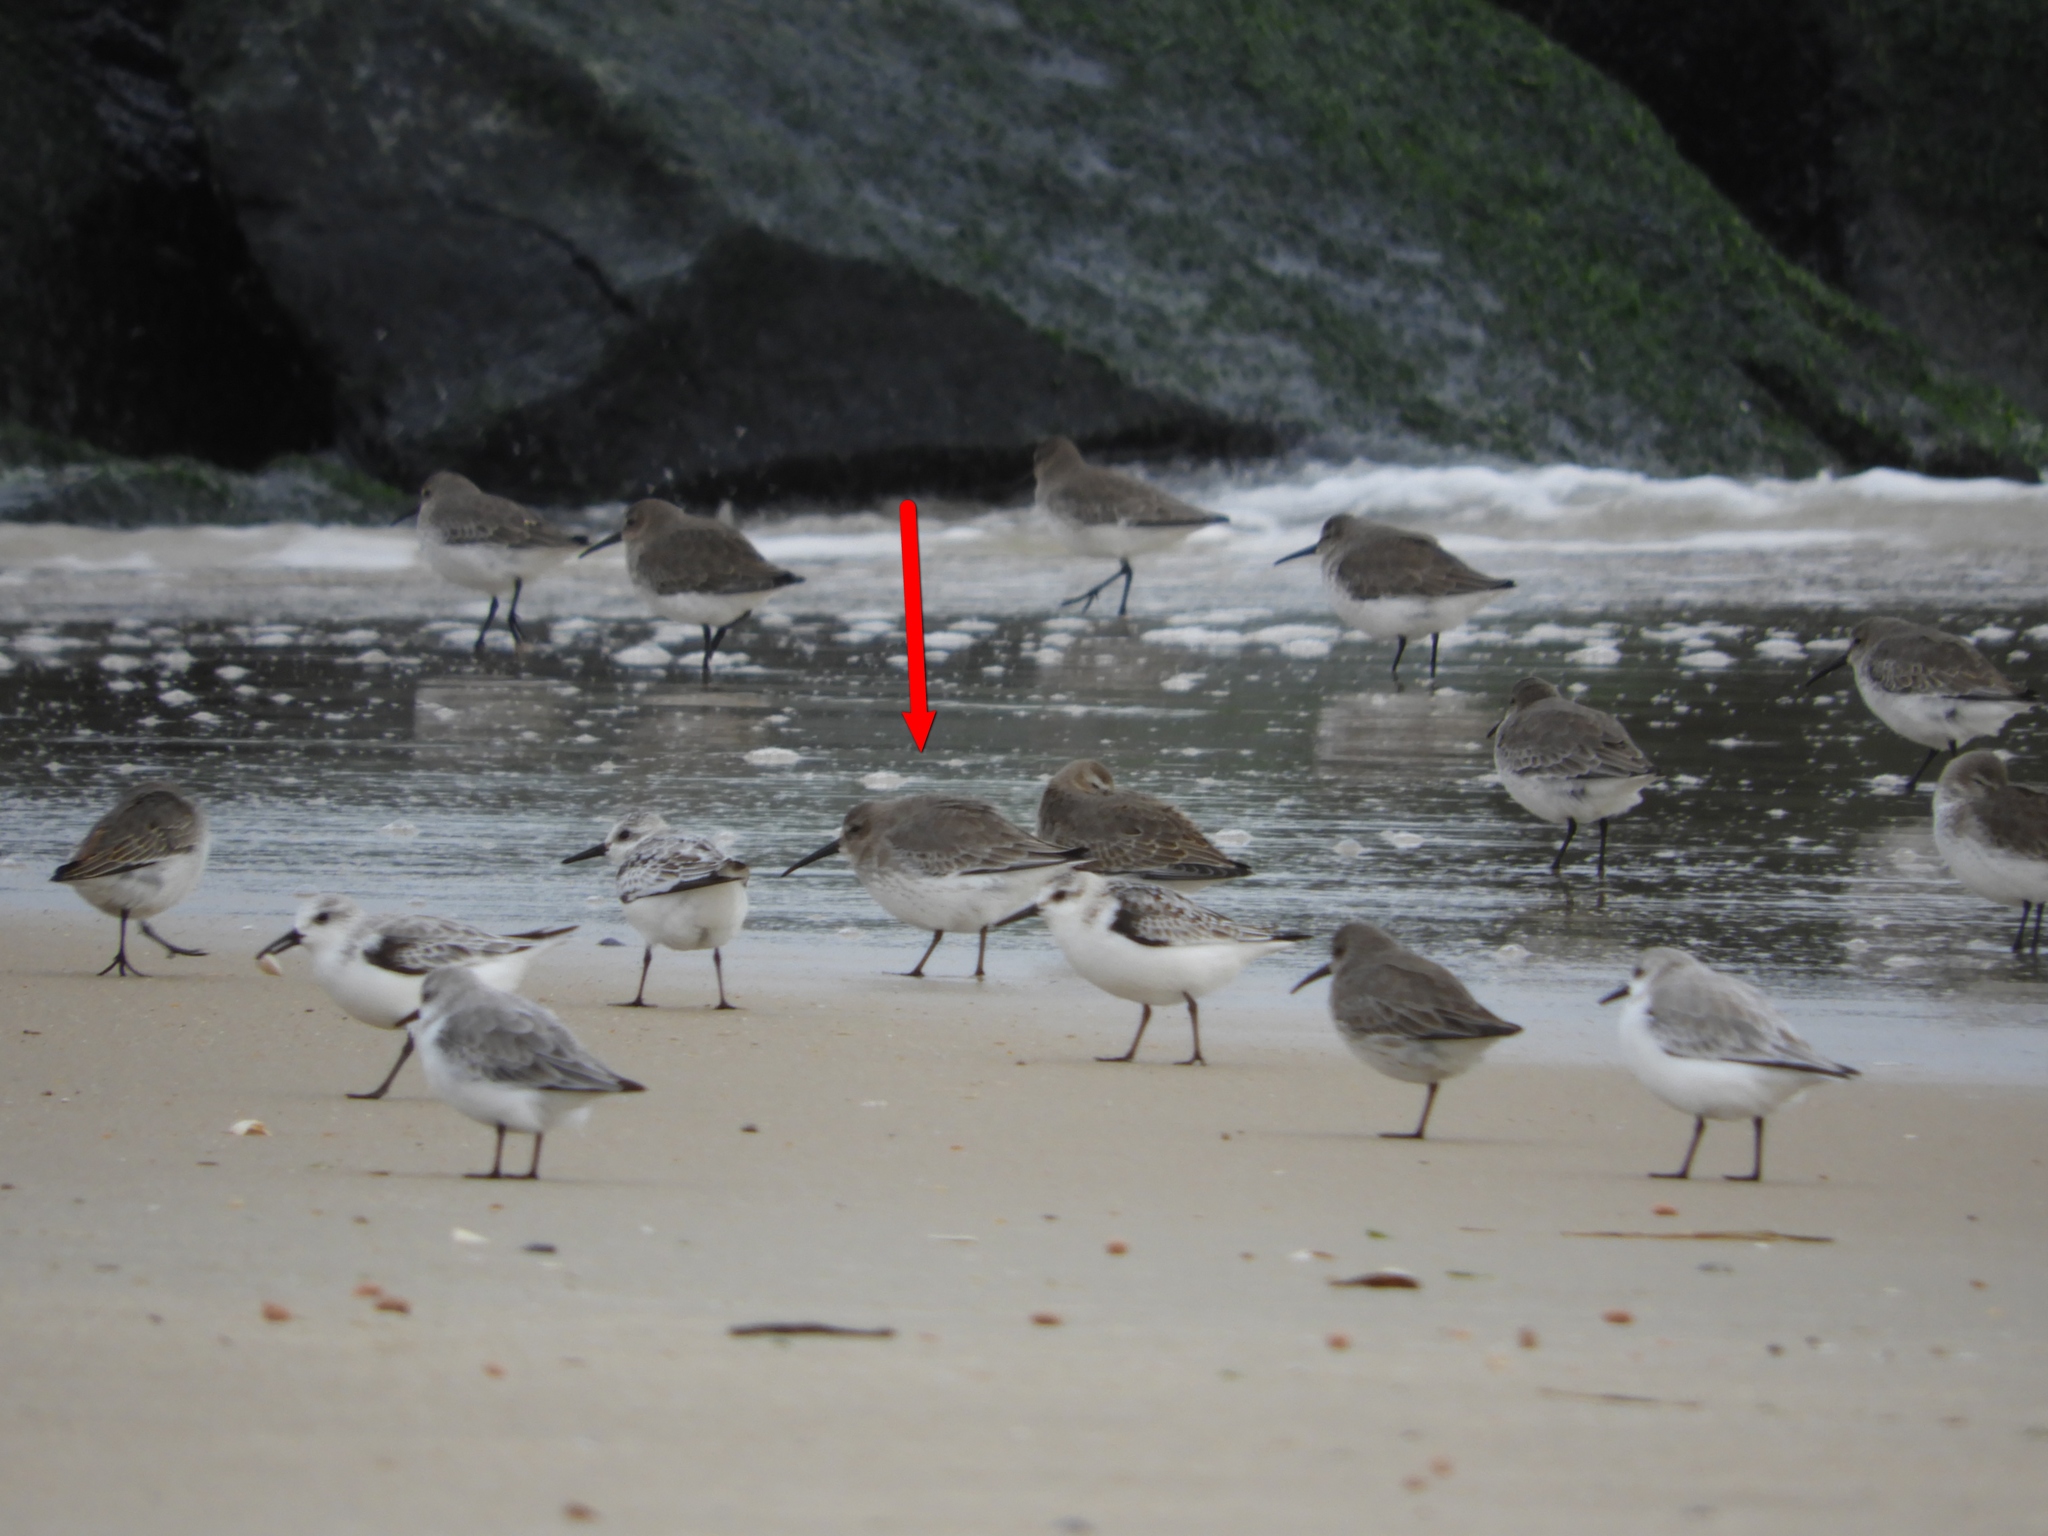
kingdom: Animalia
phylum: Chordata
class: Aves
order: Charadriiformes
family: Scolopacidae
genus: Calidris
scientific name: Calidris alpina
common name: Dunlin
